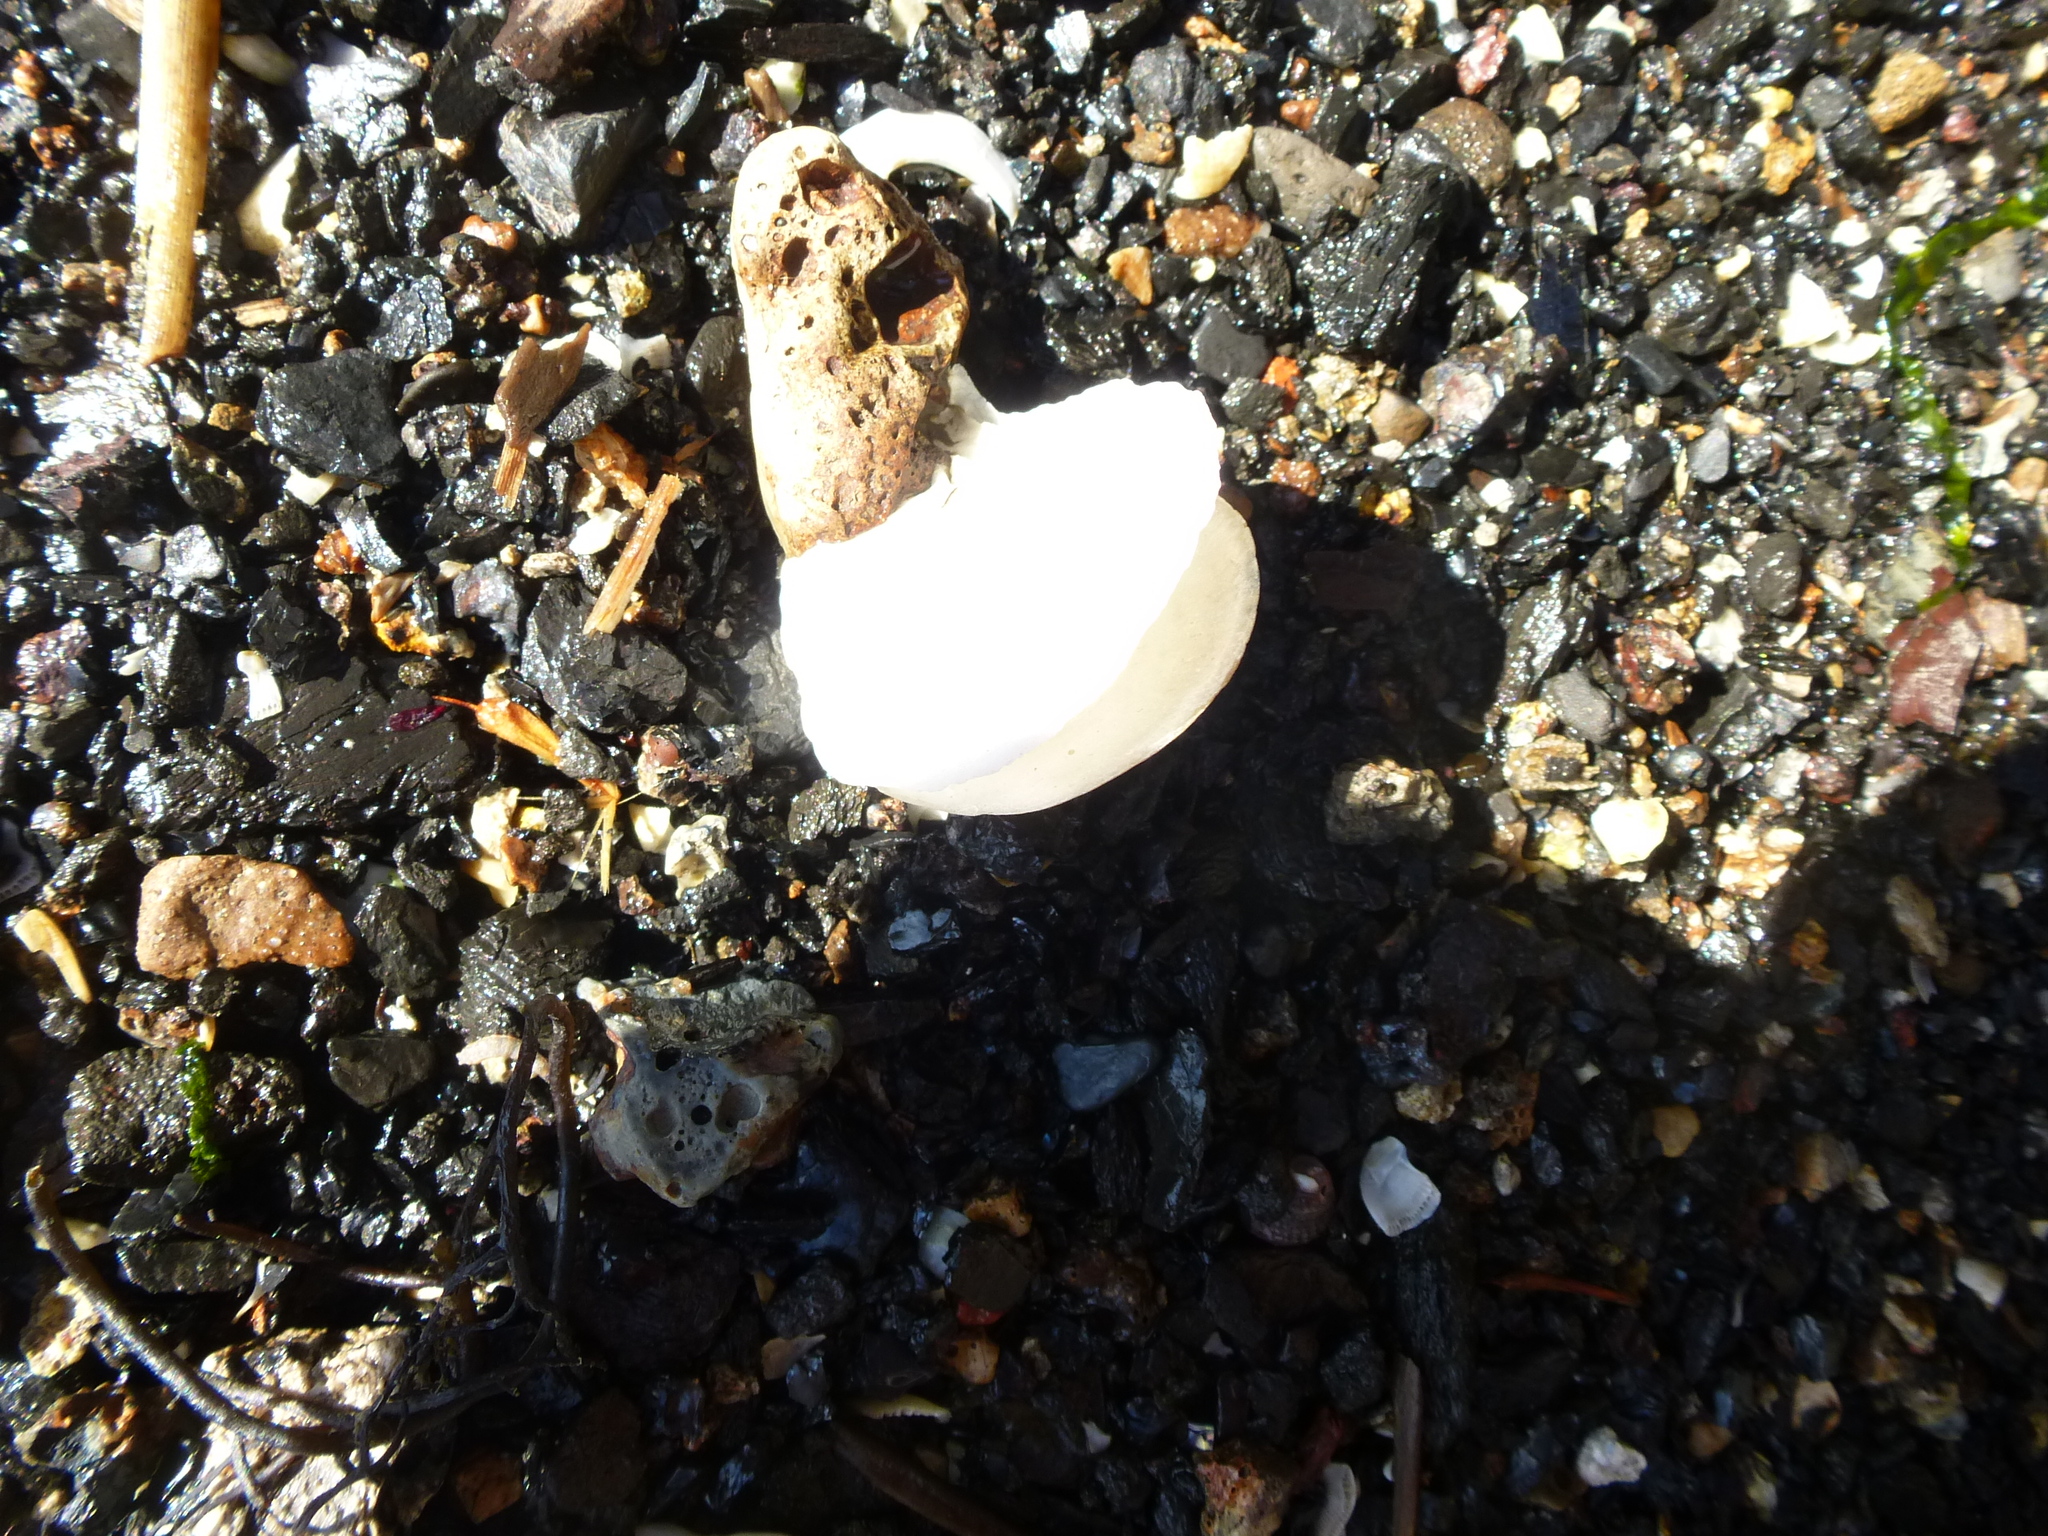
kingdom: Animalia
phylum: Mollusca
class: Bivalvia
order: Ostreida
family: Ostreidae
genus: Crassostrea
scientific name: Crassostrea virginica
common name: American oyster
